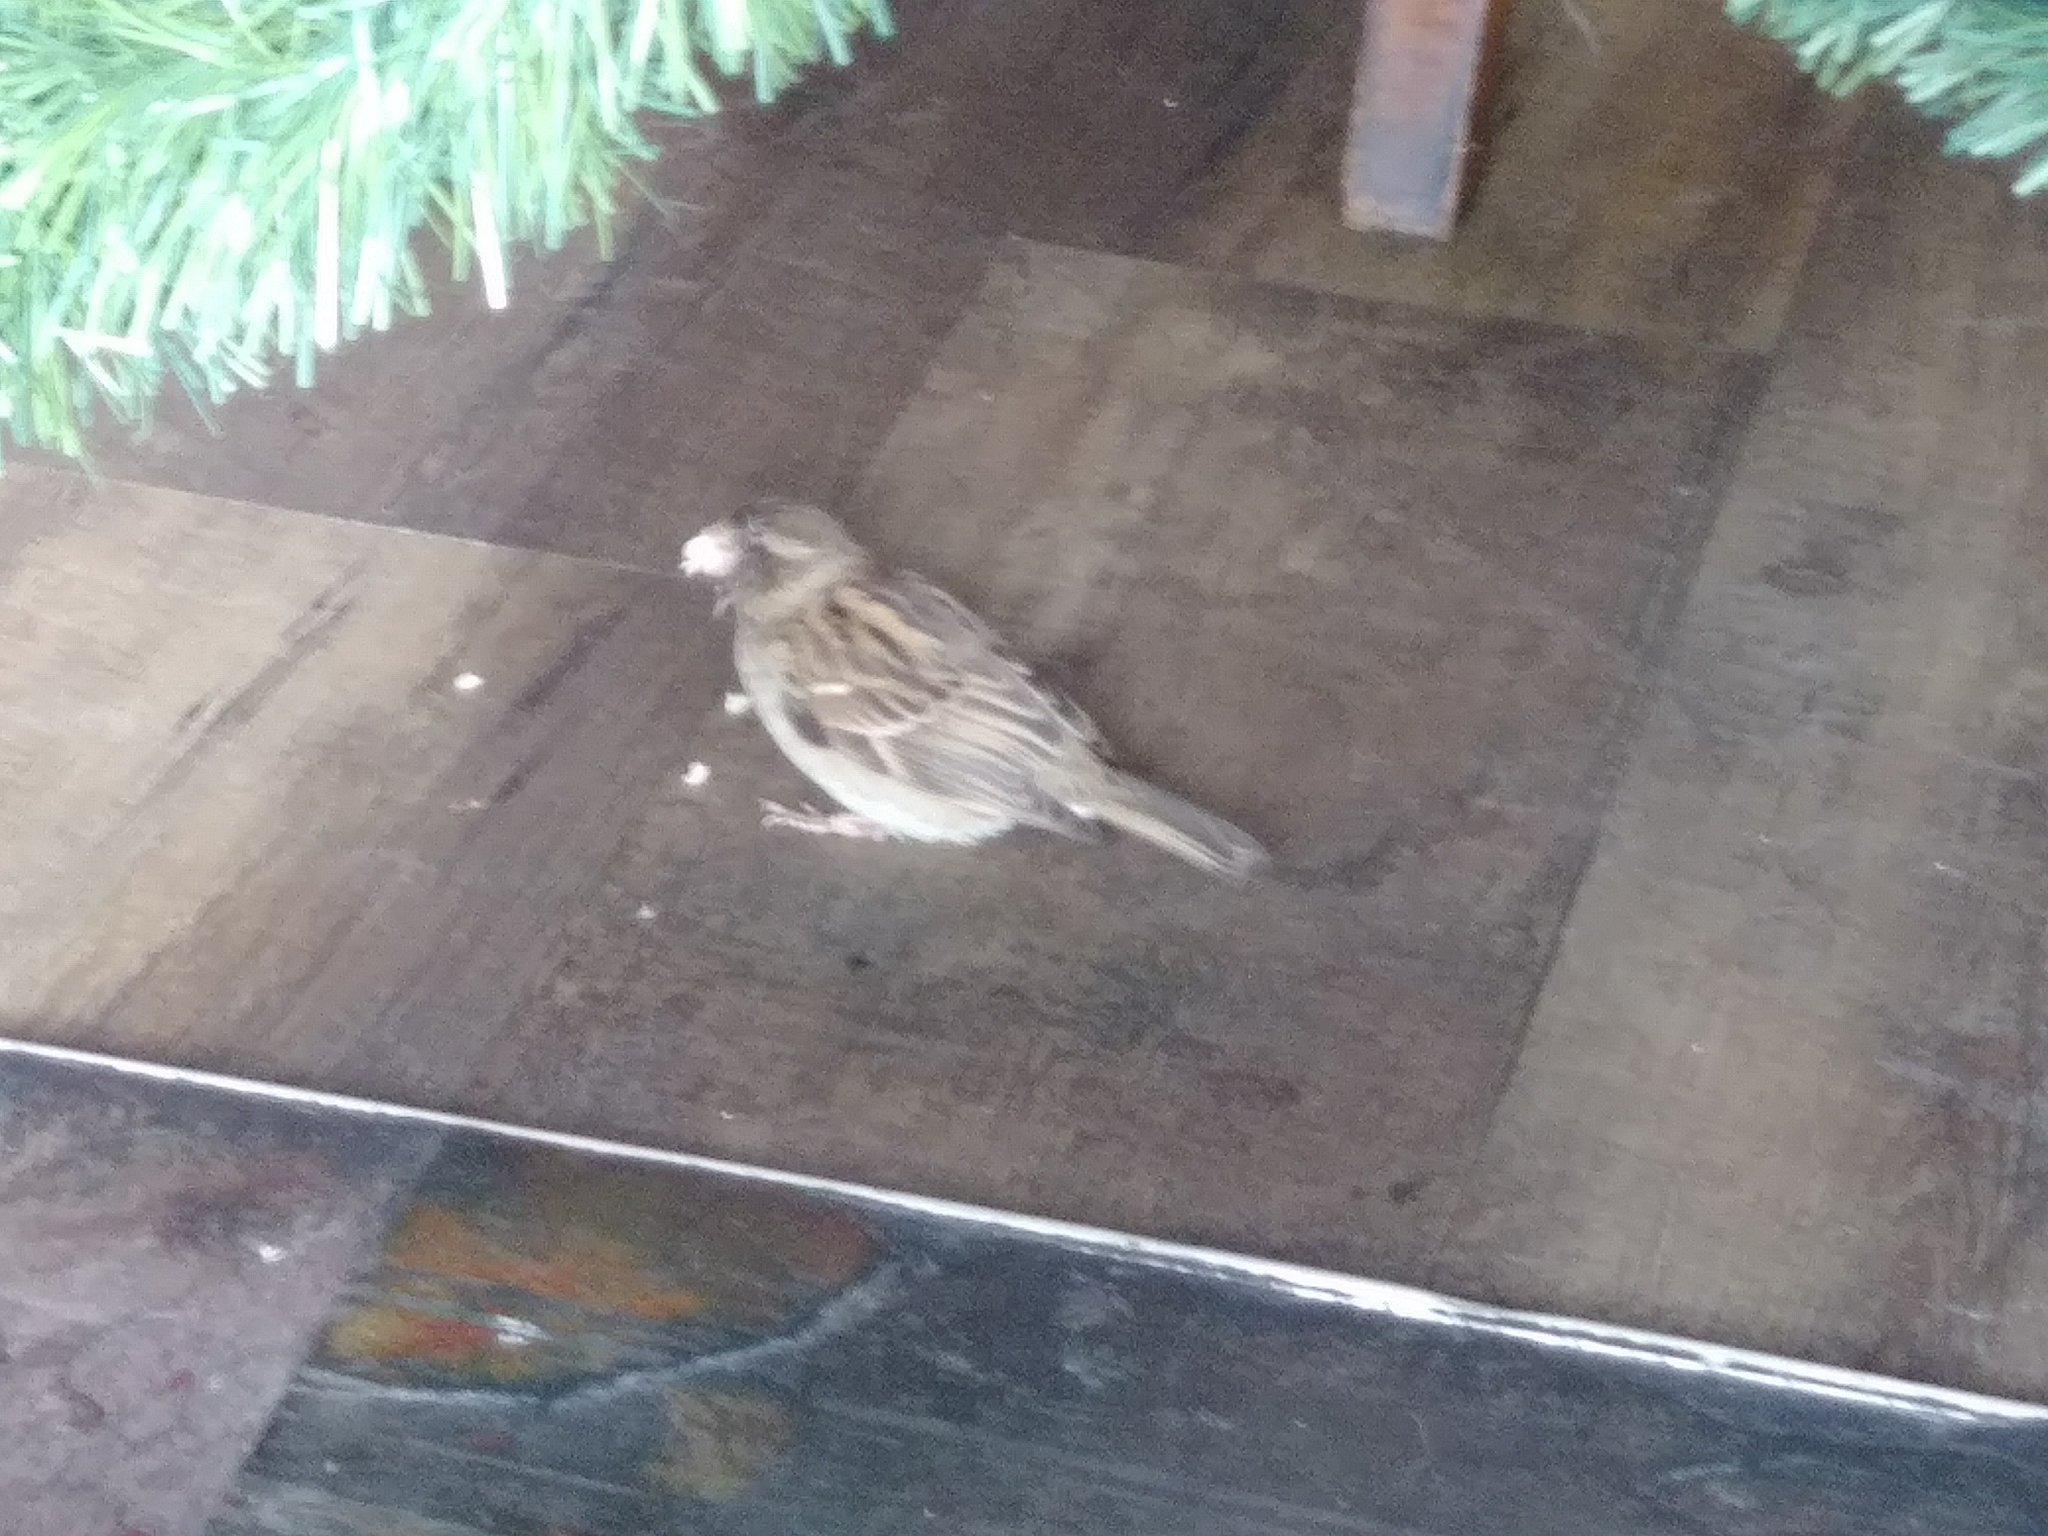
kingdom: Animalia
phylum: Chordata
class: Aves
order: Passeriformes
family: Passeridae
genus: Passer
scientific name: Passer domesticus
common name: House sparrow
